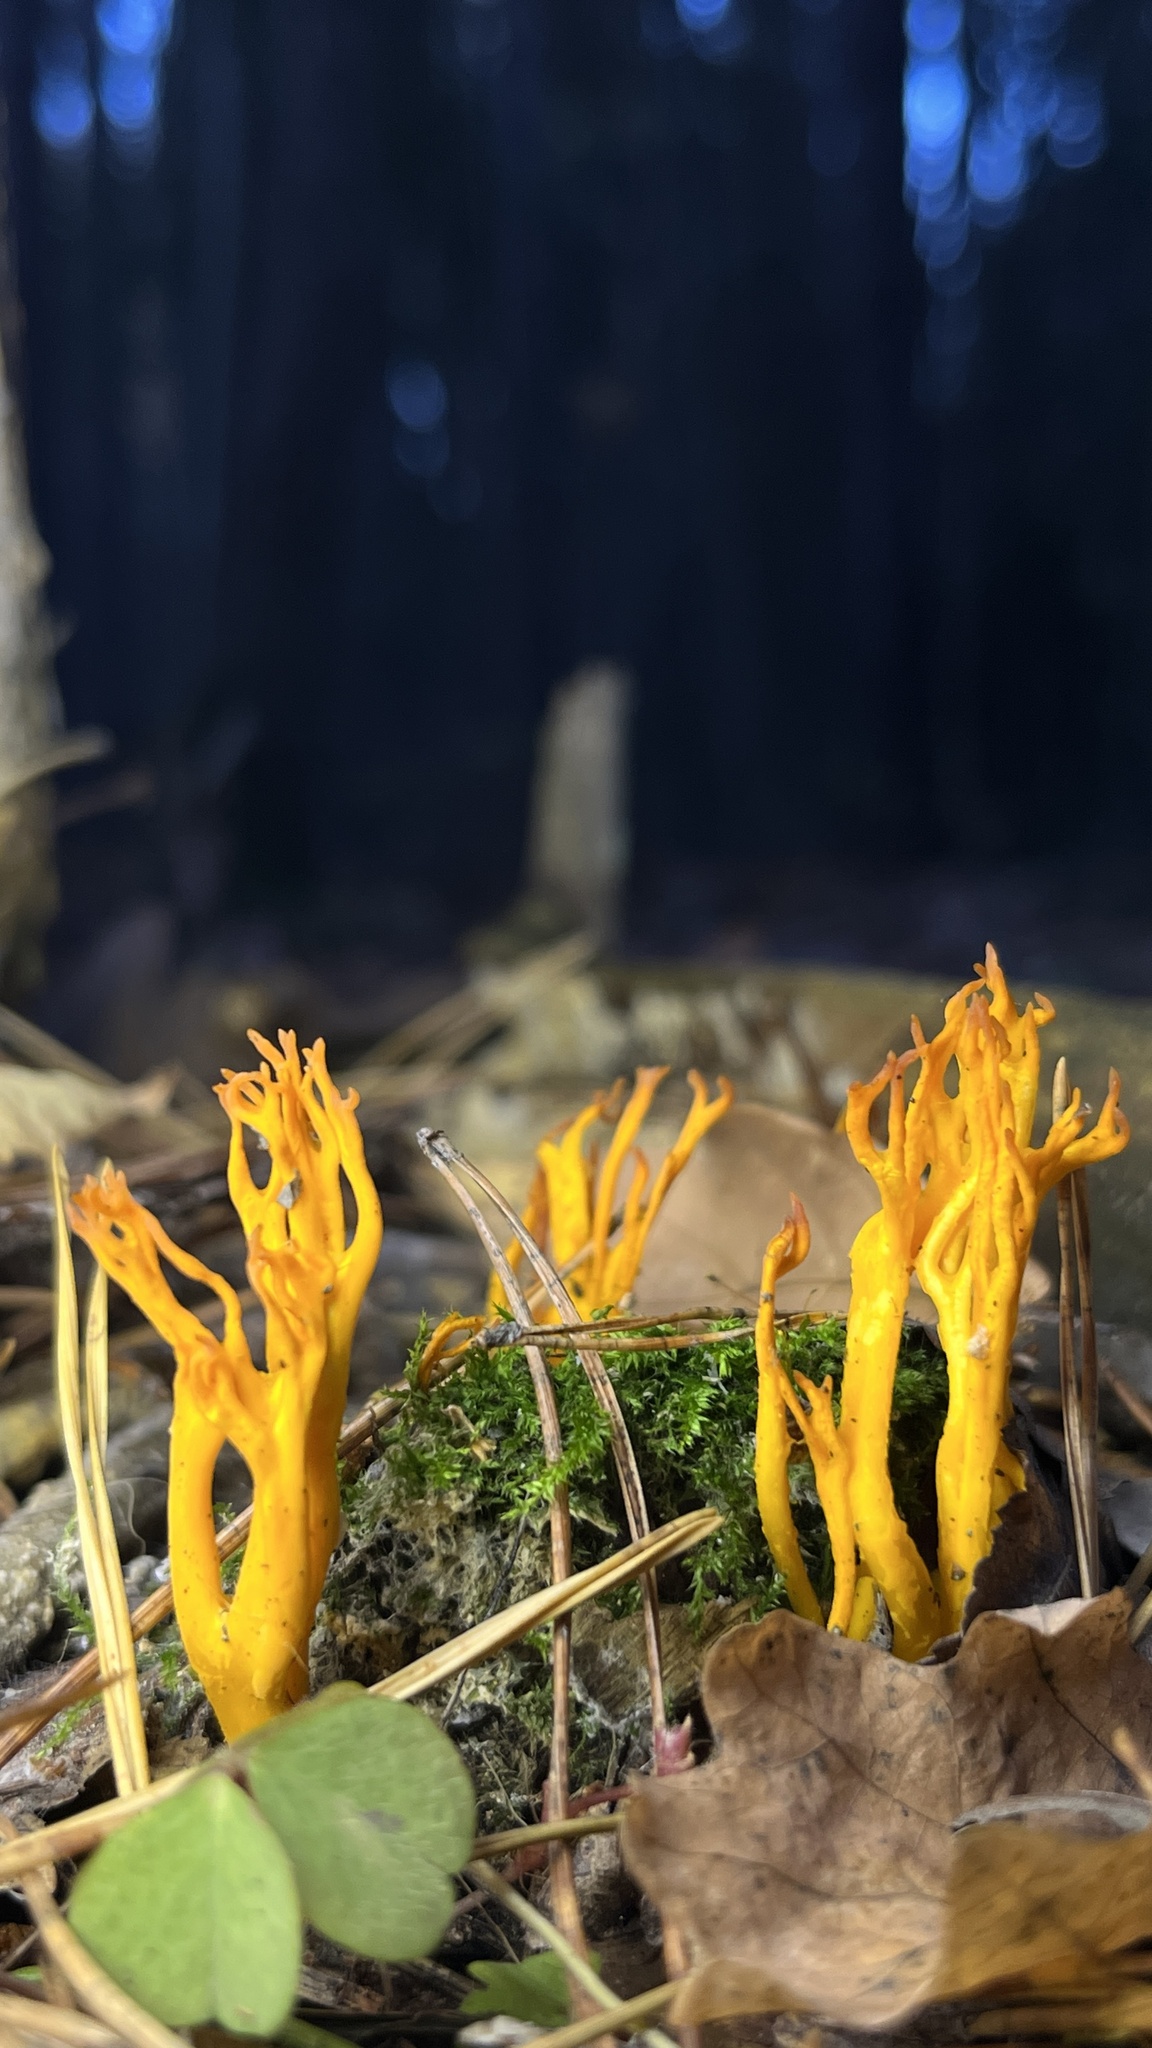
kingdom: Fungi
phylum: Basidiomycota
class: Dacrymycetes
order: Dacrymycetales
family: Dacrymycetaceae
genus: Calocera
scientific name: Calocera viscosa
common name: Yellow stagshorn
